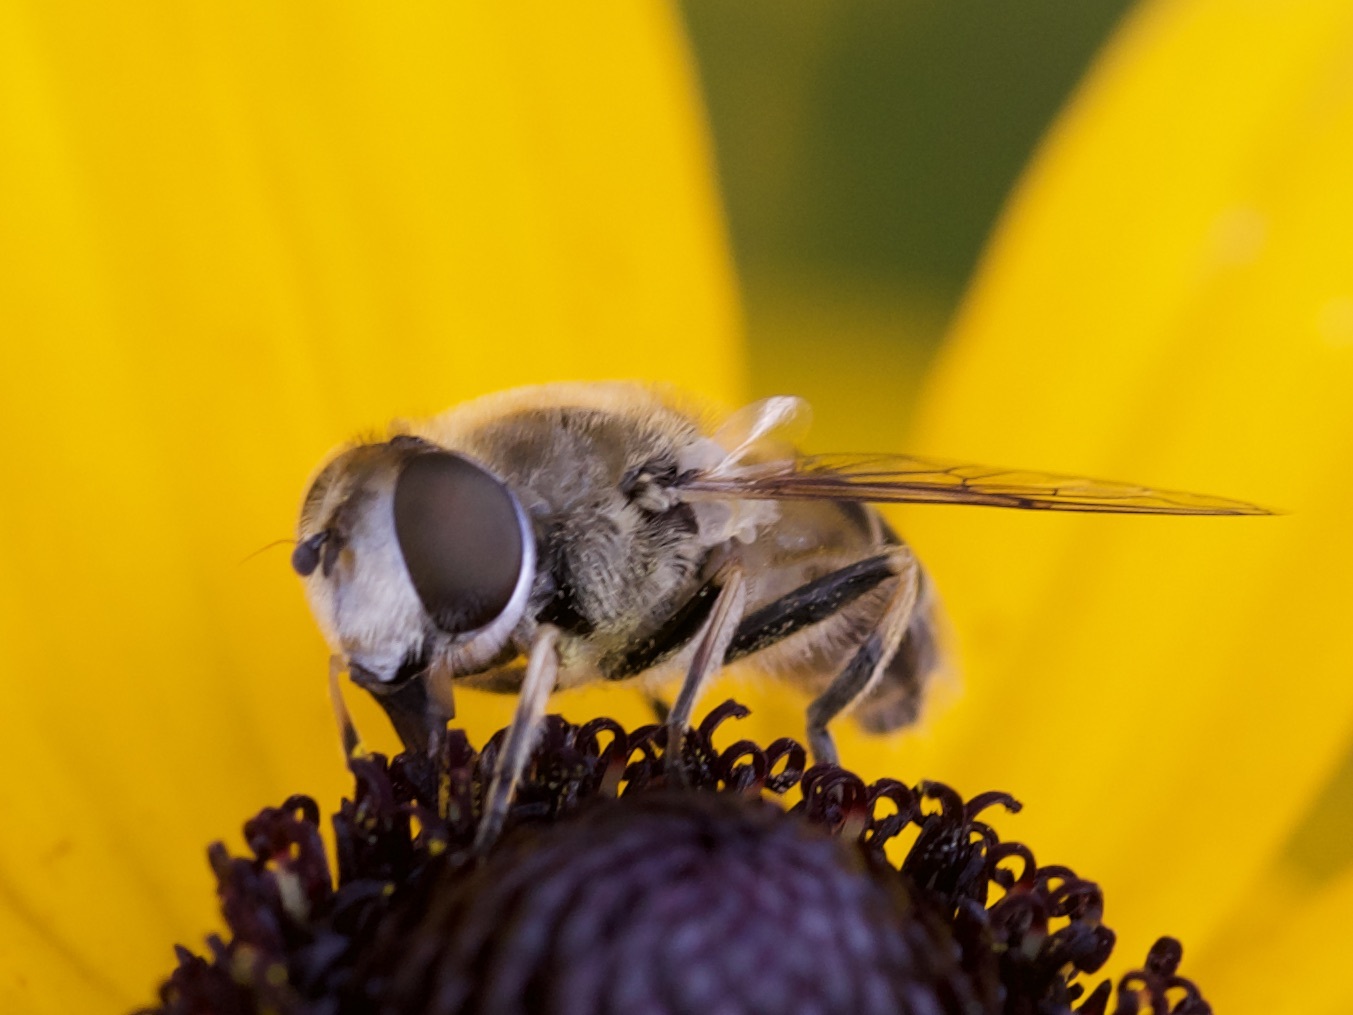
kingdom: Animalia
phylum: Arthropoda
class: Insecta
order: Diptera
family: Syrphidae
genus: Eristalis
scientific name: Eristalis arbustorum
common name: Hover fly
